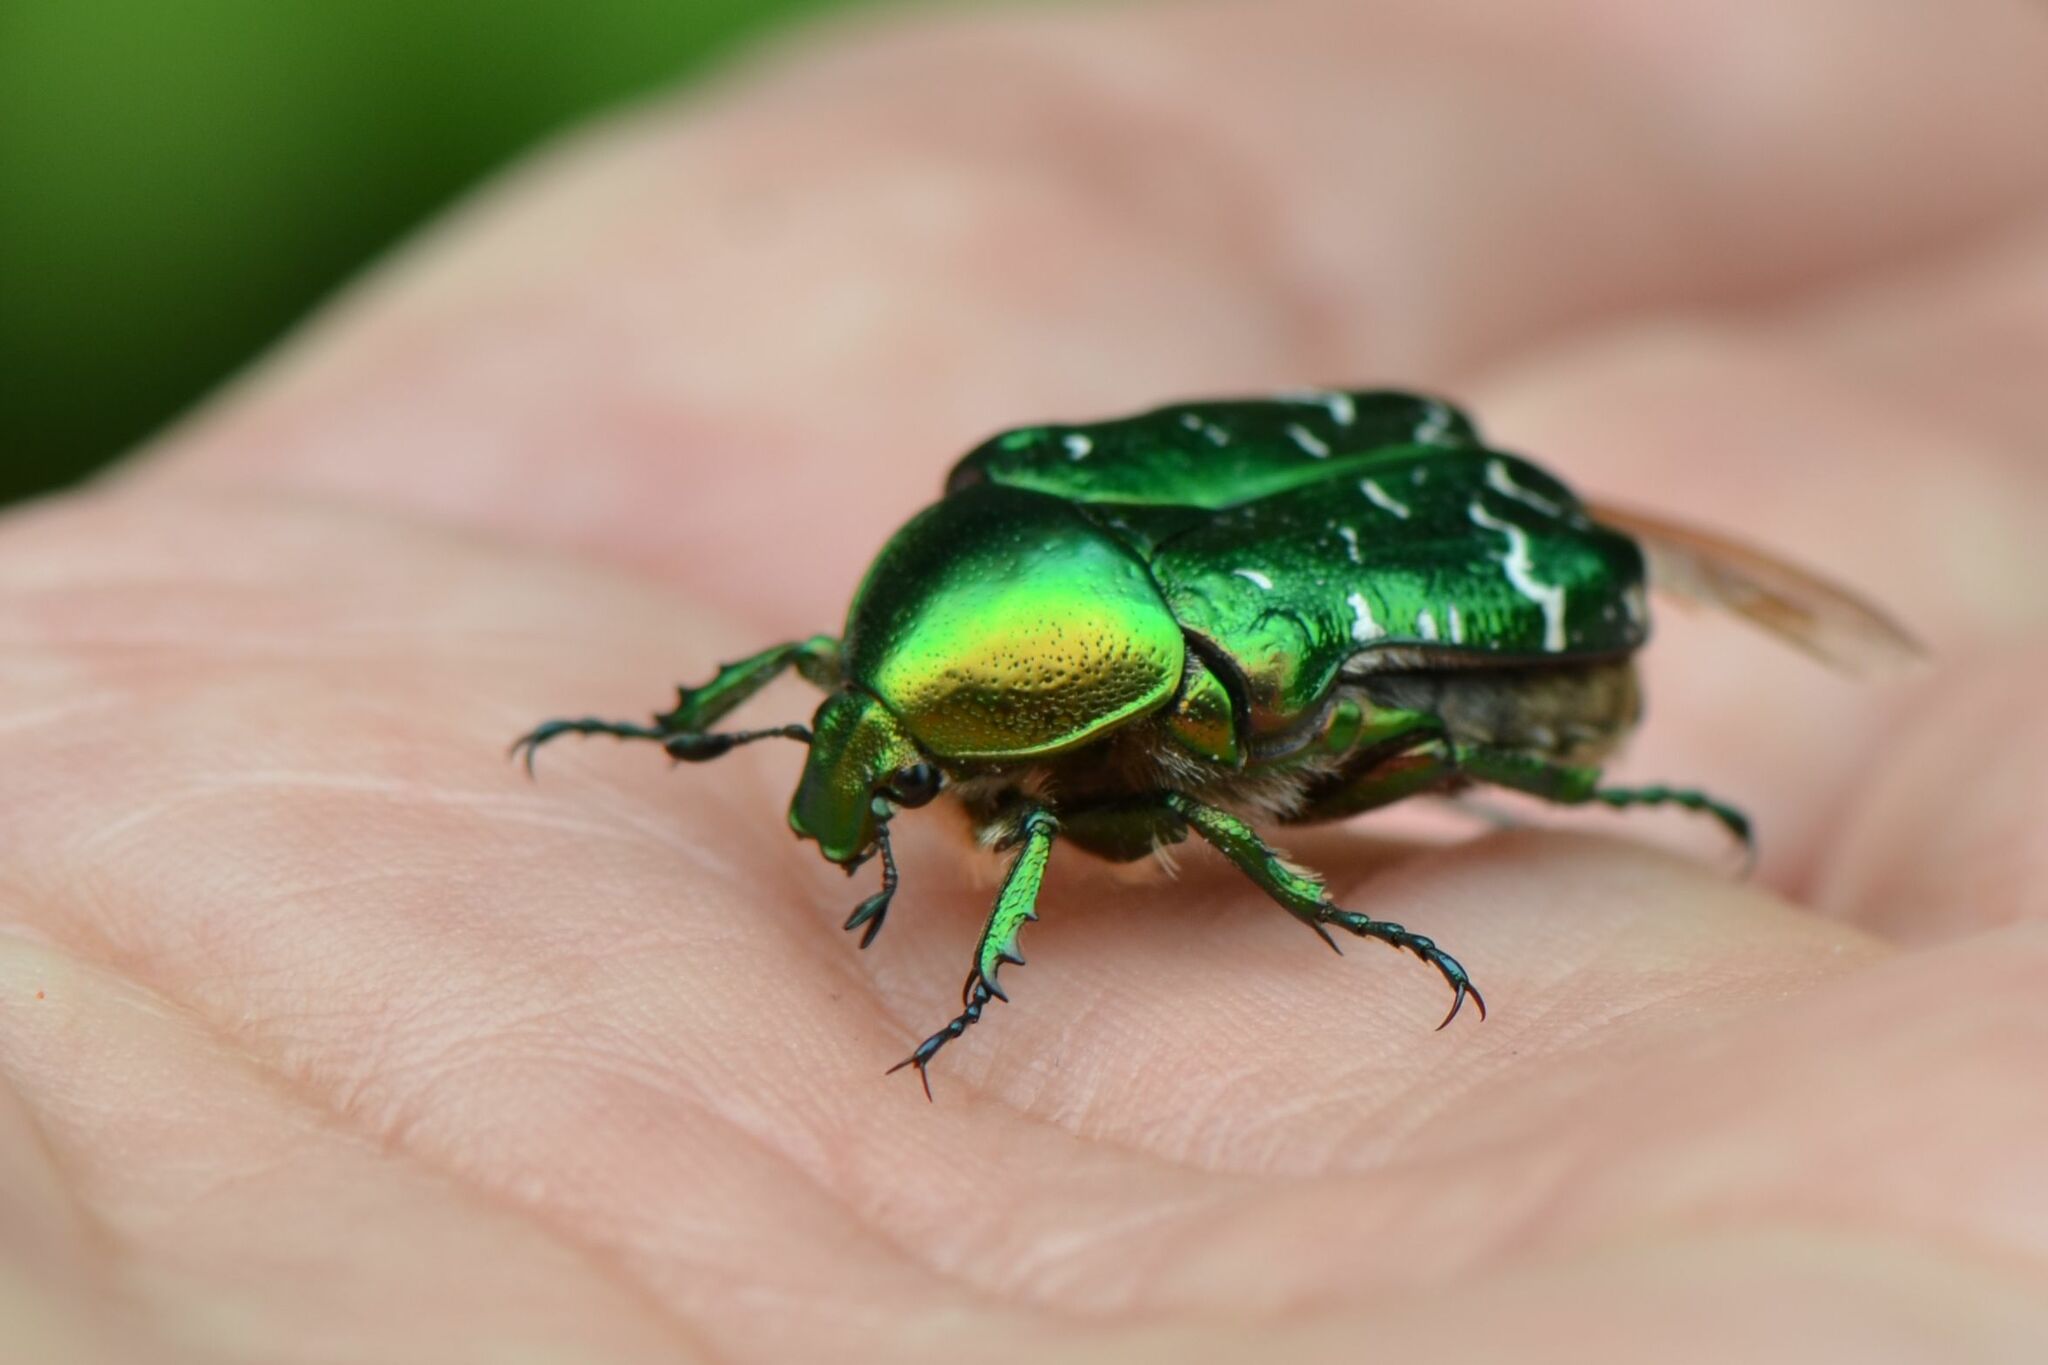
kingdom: Animalia
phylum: Arthropoda
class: Insecta
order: Coleoptera
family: Scarabaeidae
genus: Cetonia
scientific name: Cetonia aurata
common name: Rose chafer
